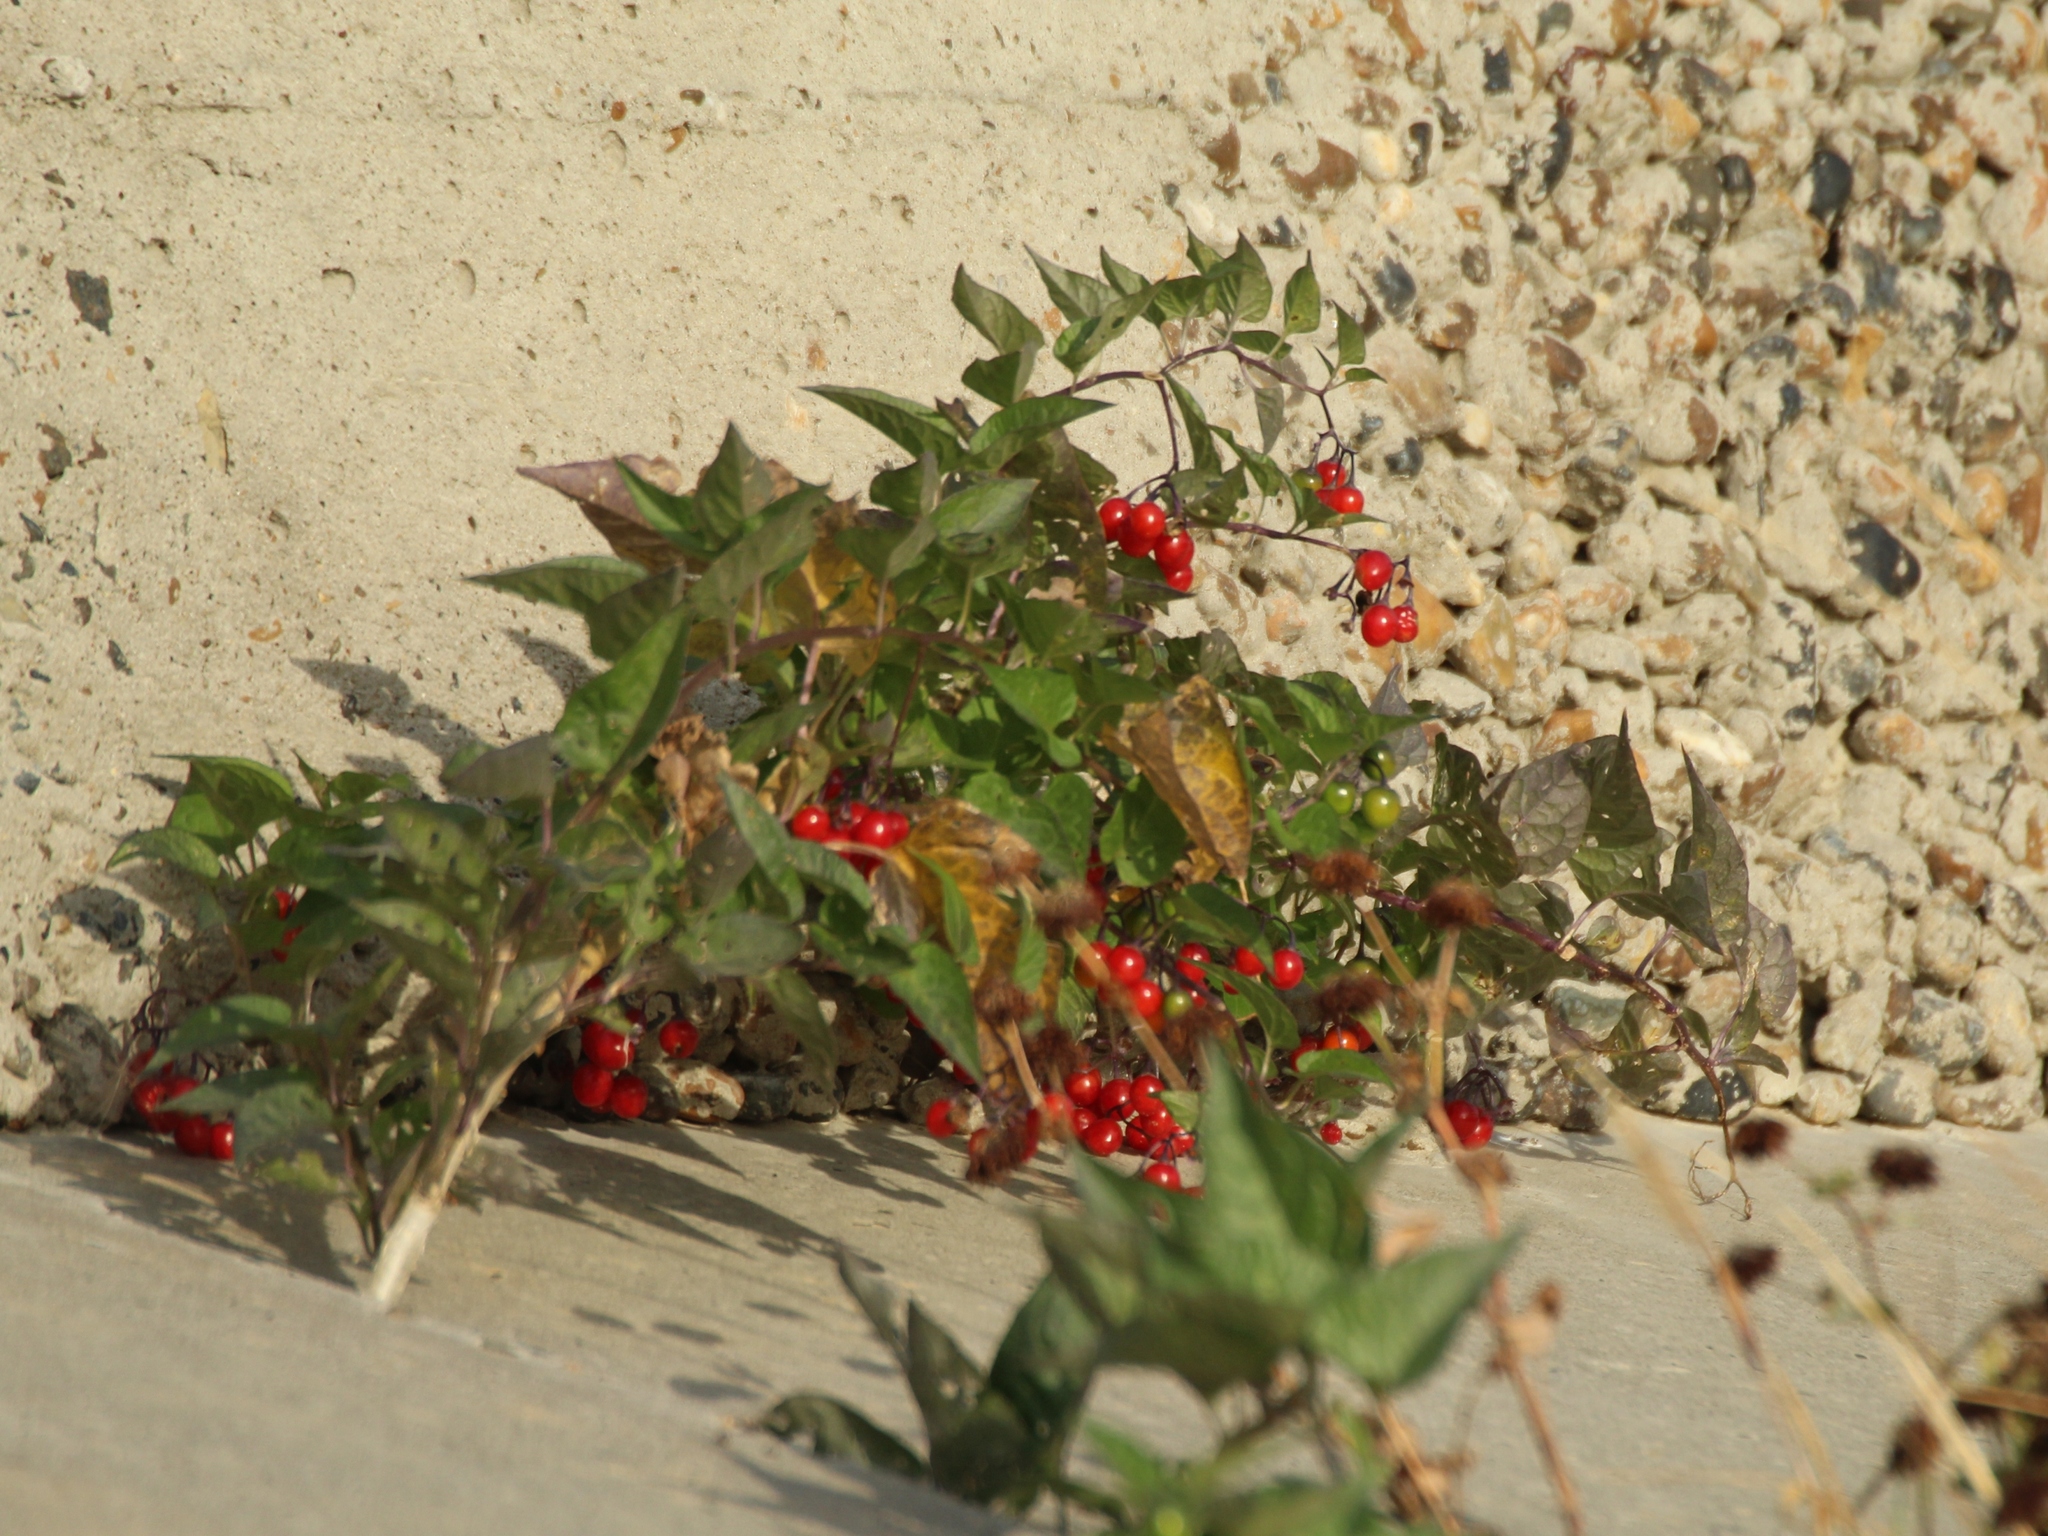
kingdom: Plantae
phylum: Tracheophyta
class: Magnoliopsida
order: Solanales
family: Solanaceae
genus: Solanum
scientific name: Solanum dulcamara
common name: Climbing nightshade
